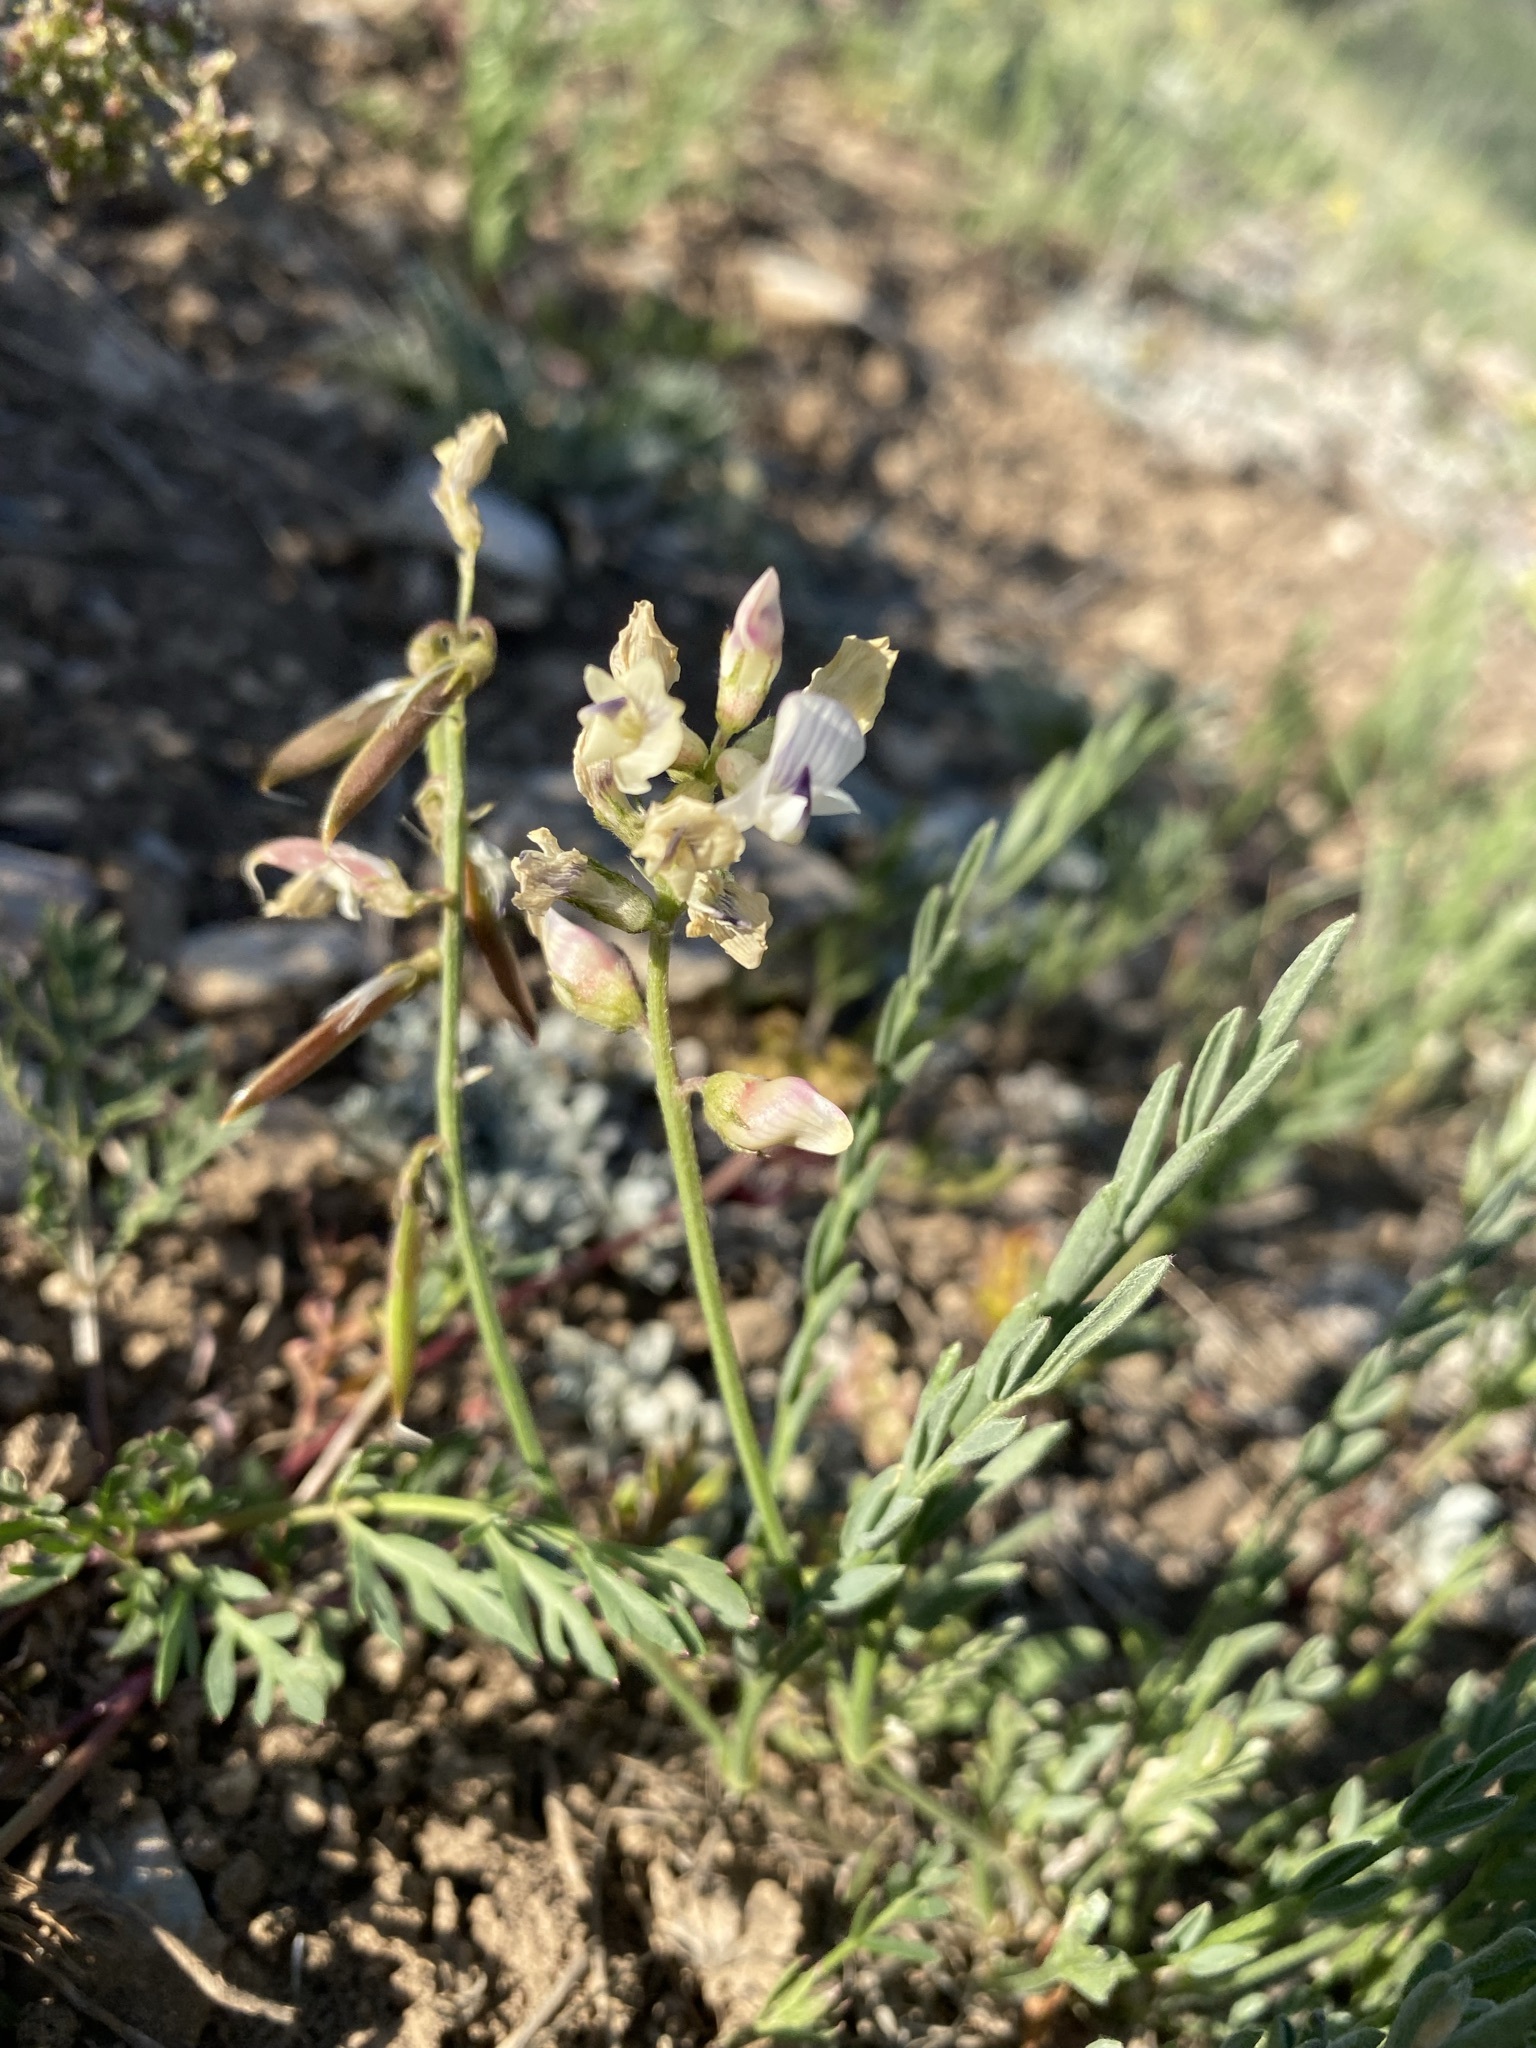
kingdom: Plantae
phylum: Tracheophyta
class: Magnoliopsida
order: Fabales
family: Fabaceae
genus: Astragalus
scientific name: Astragalus miser
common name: Timber milkvetch
